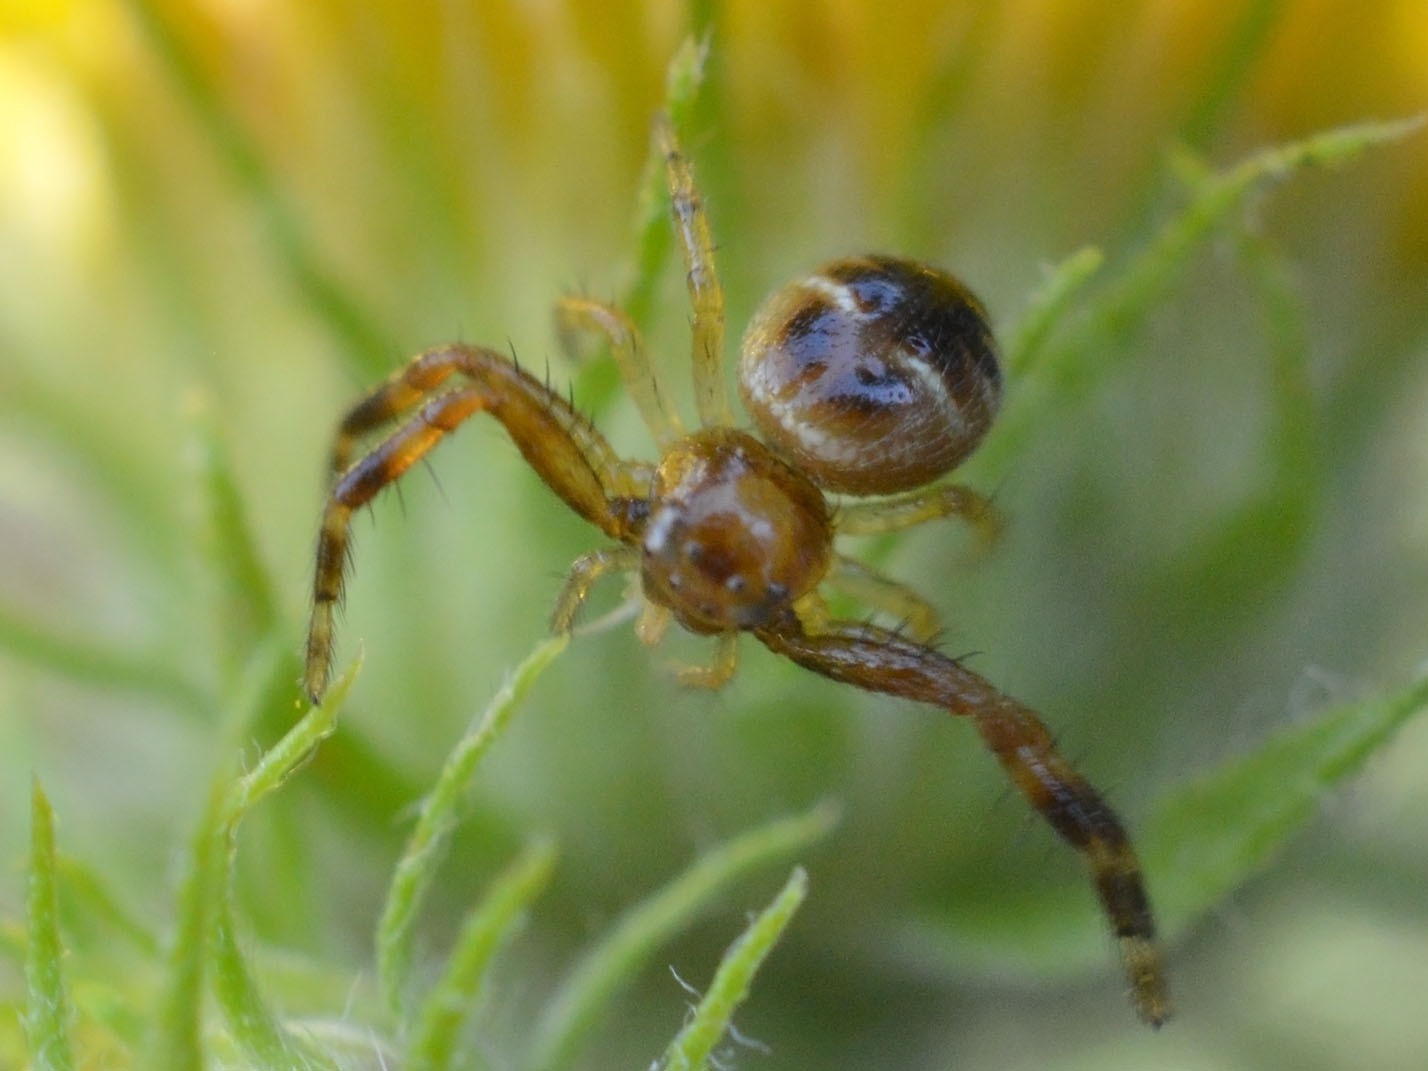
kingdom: Animalia
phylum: Arthropoda
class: Arachnida
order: Araneae
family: Thomisidae
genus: Synema
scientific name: Synema globosum
